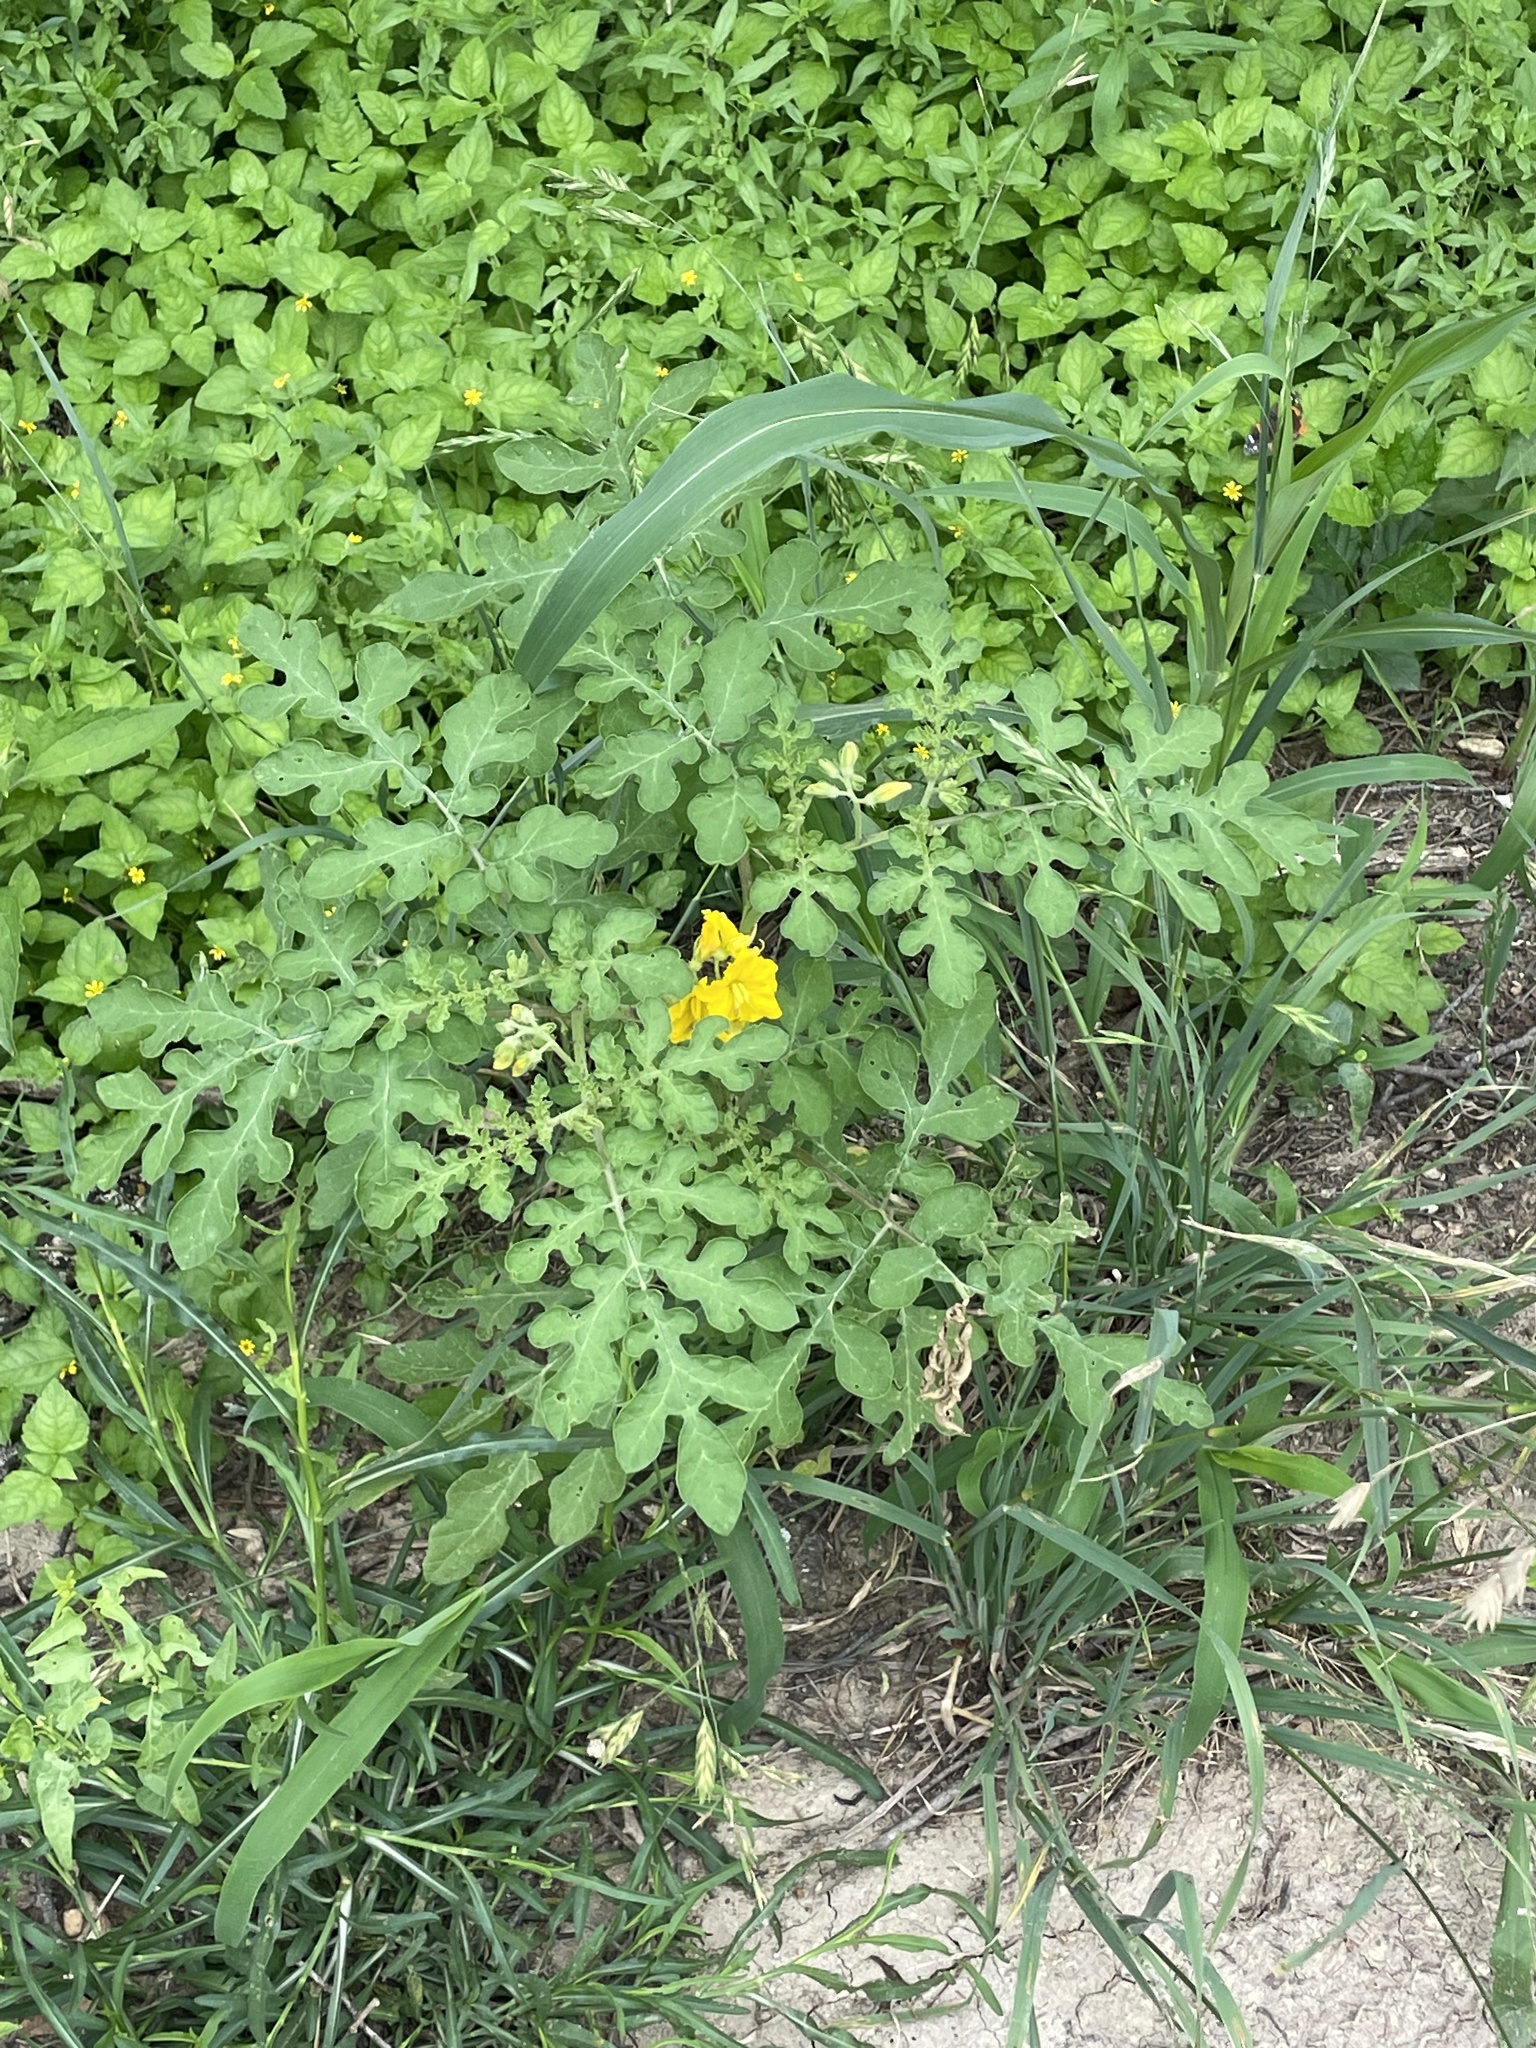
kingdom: Plantae
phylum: Tracheophyta
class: Magnoliopsida
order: Solanales
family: Solanaceae
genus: Solanum
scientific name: Solanum angustifolium
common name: Buffalobur nightshade
